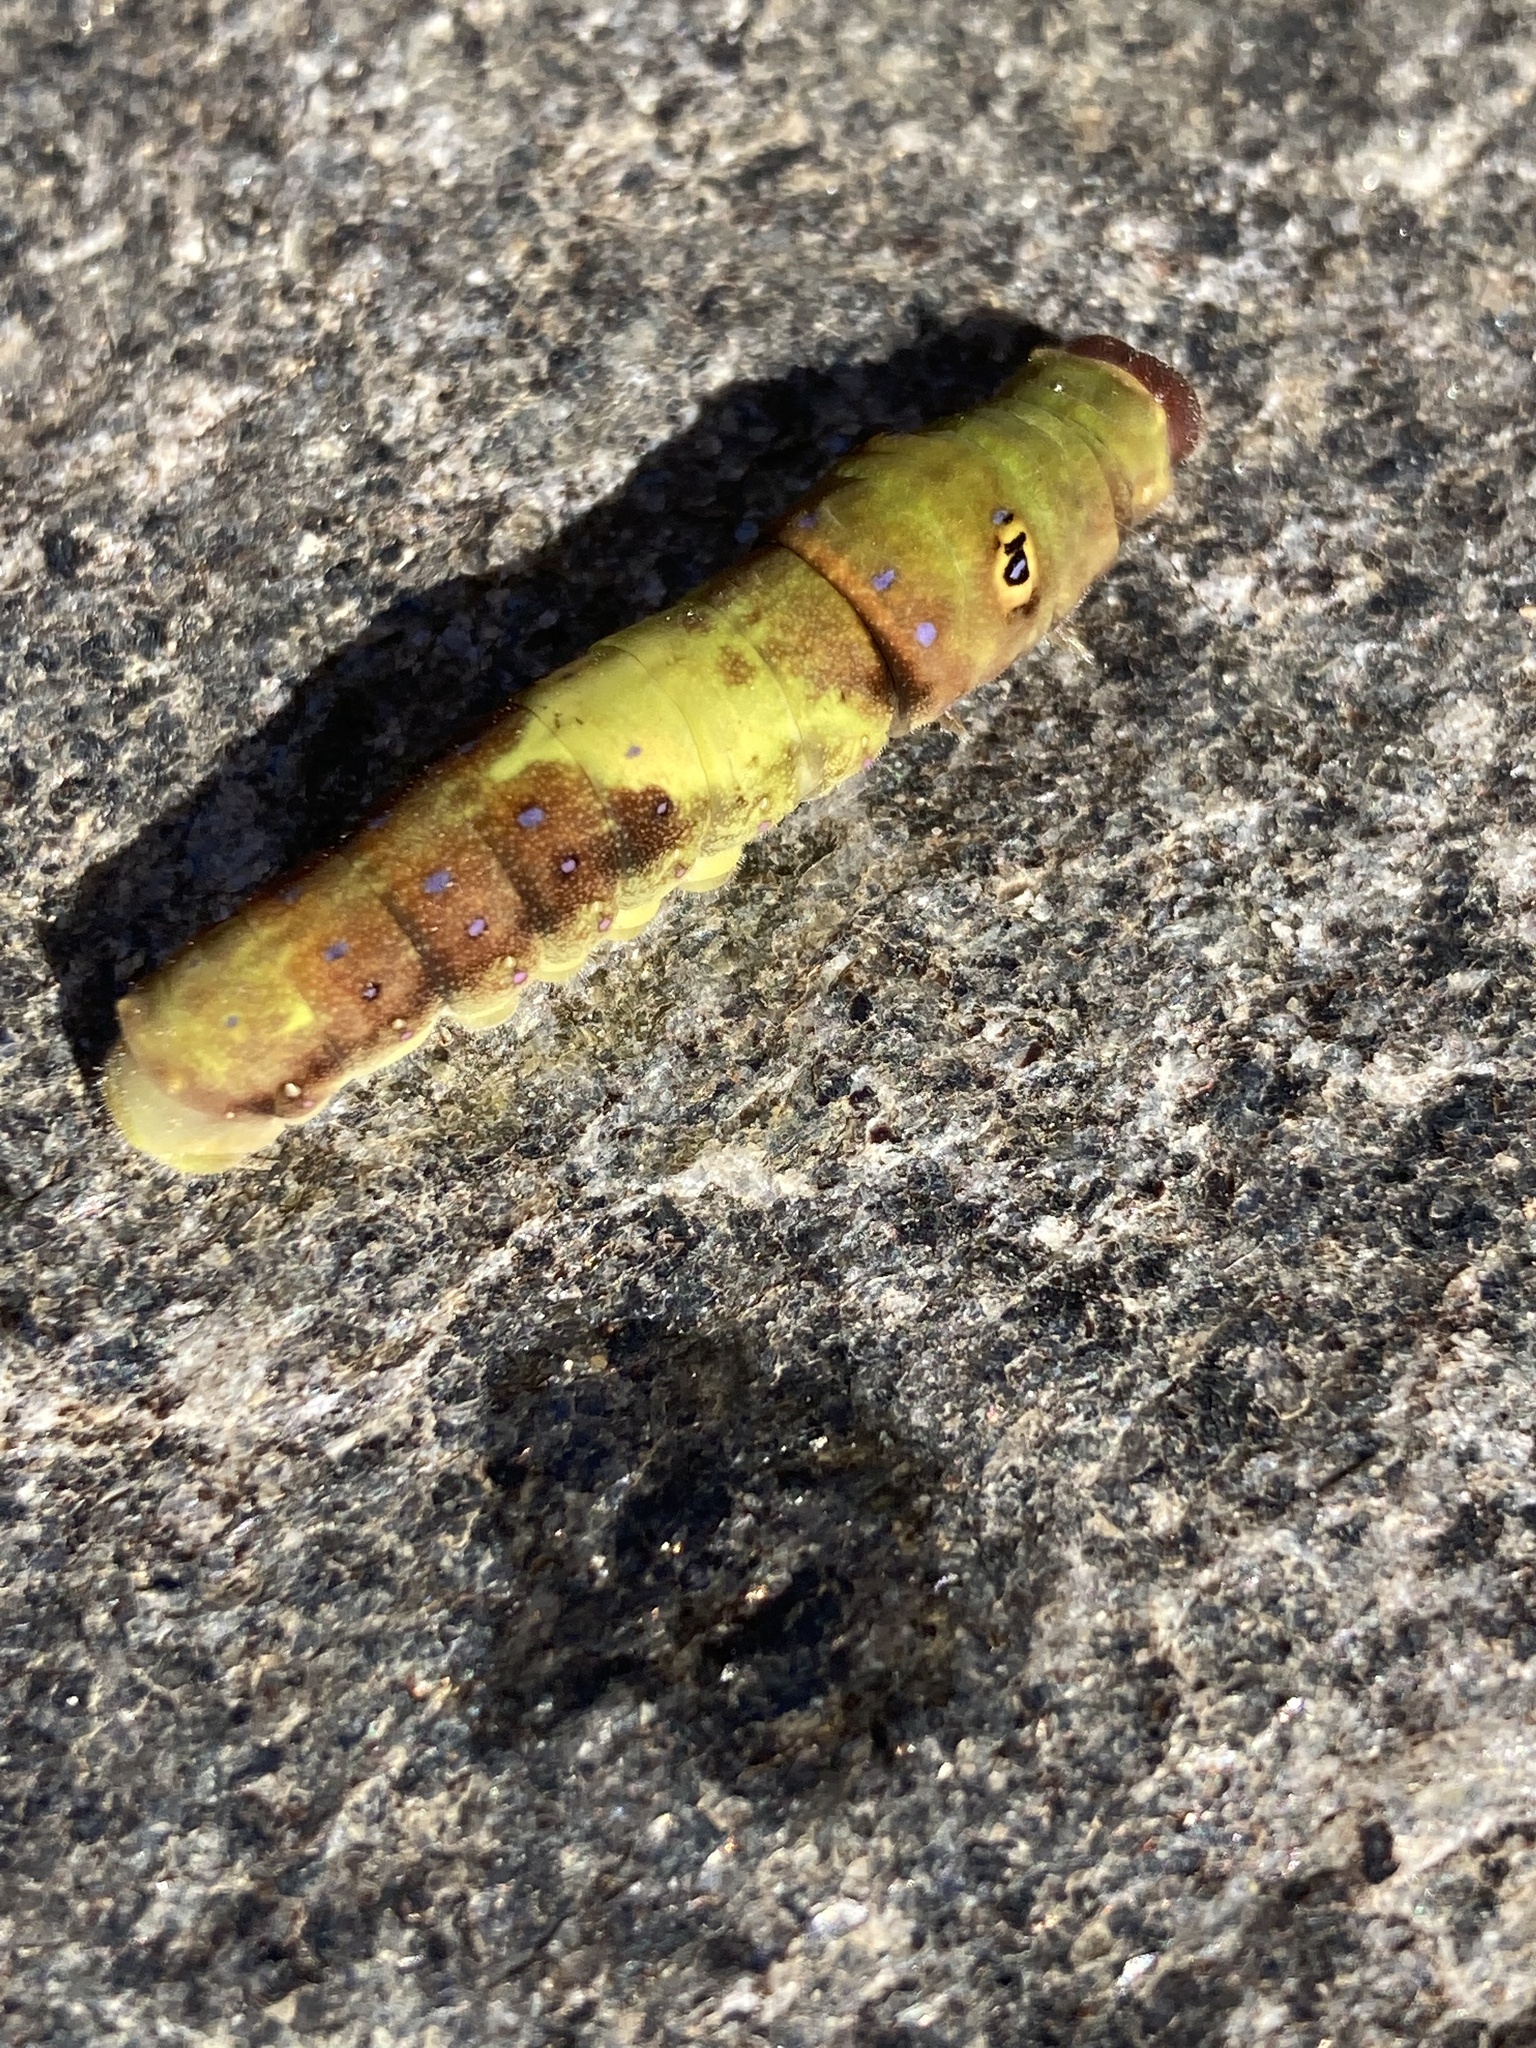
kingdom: Animalia
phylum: Arthropoda
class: Insecta
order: Lepidoptera
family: Papilionidae
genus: Papilio
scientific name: Papilio glaucus
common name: Tiger swallowtail
